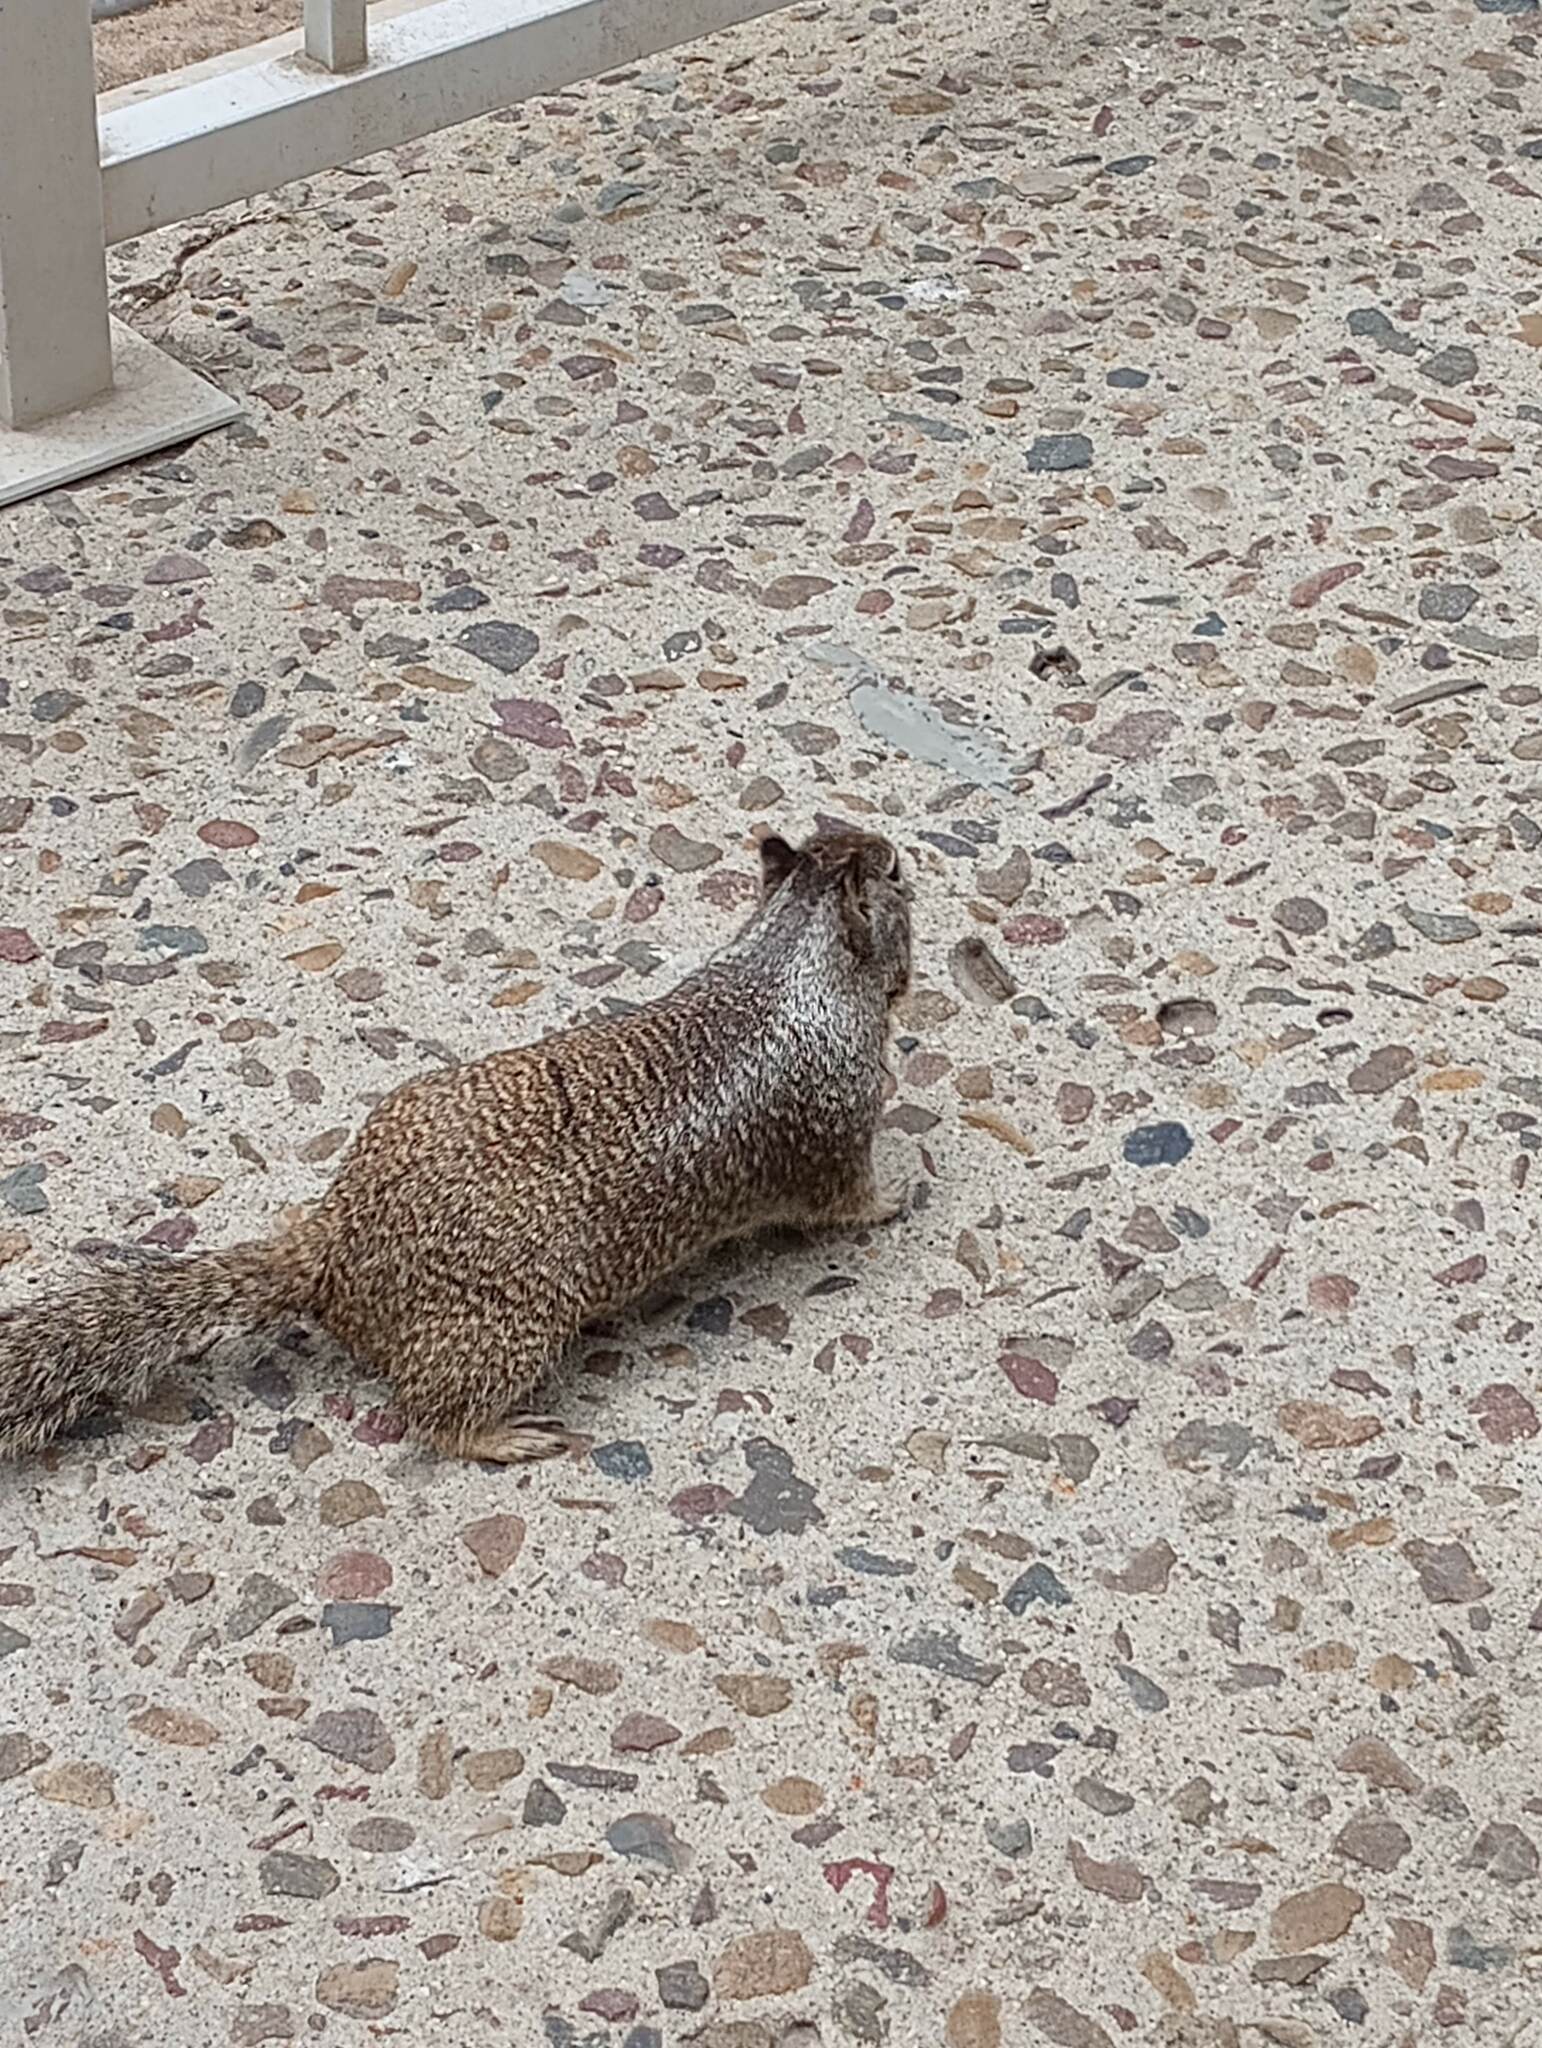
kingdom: Animalia
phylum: Chordata
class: Mammalia
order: Rodentia
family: Sciuridae
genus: Otospermophilus
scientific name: Otospermophilus beecheyi
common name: California ground squirrel
